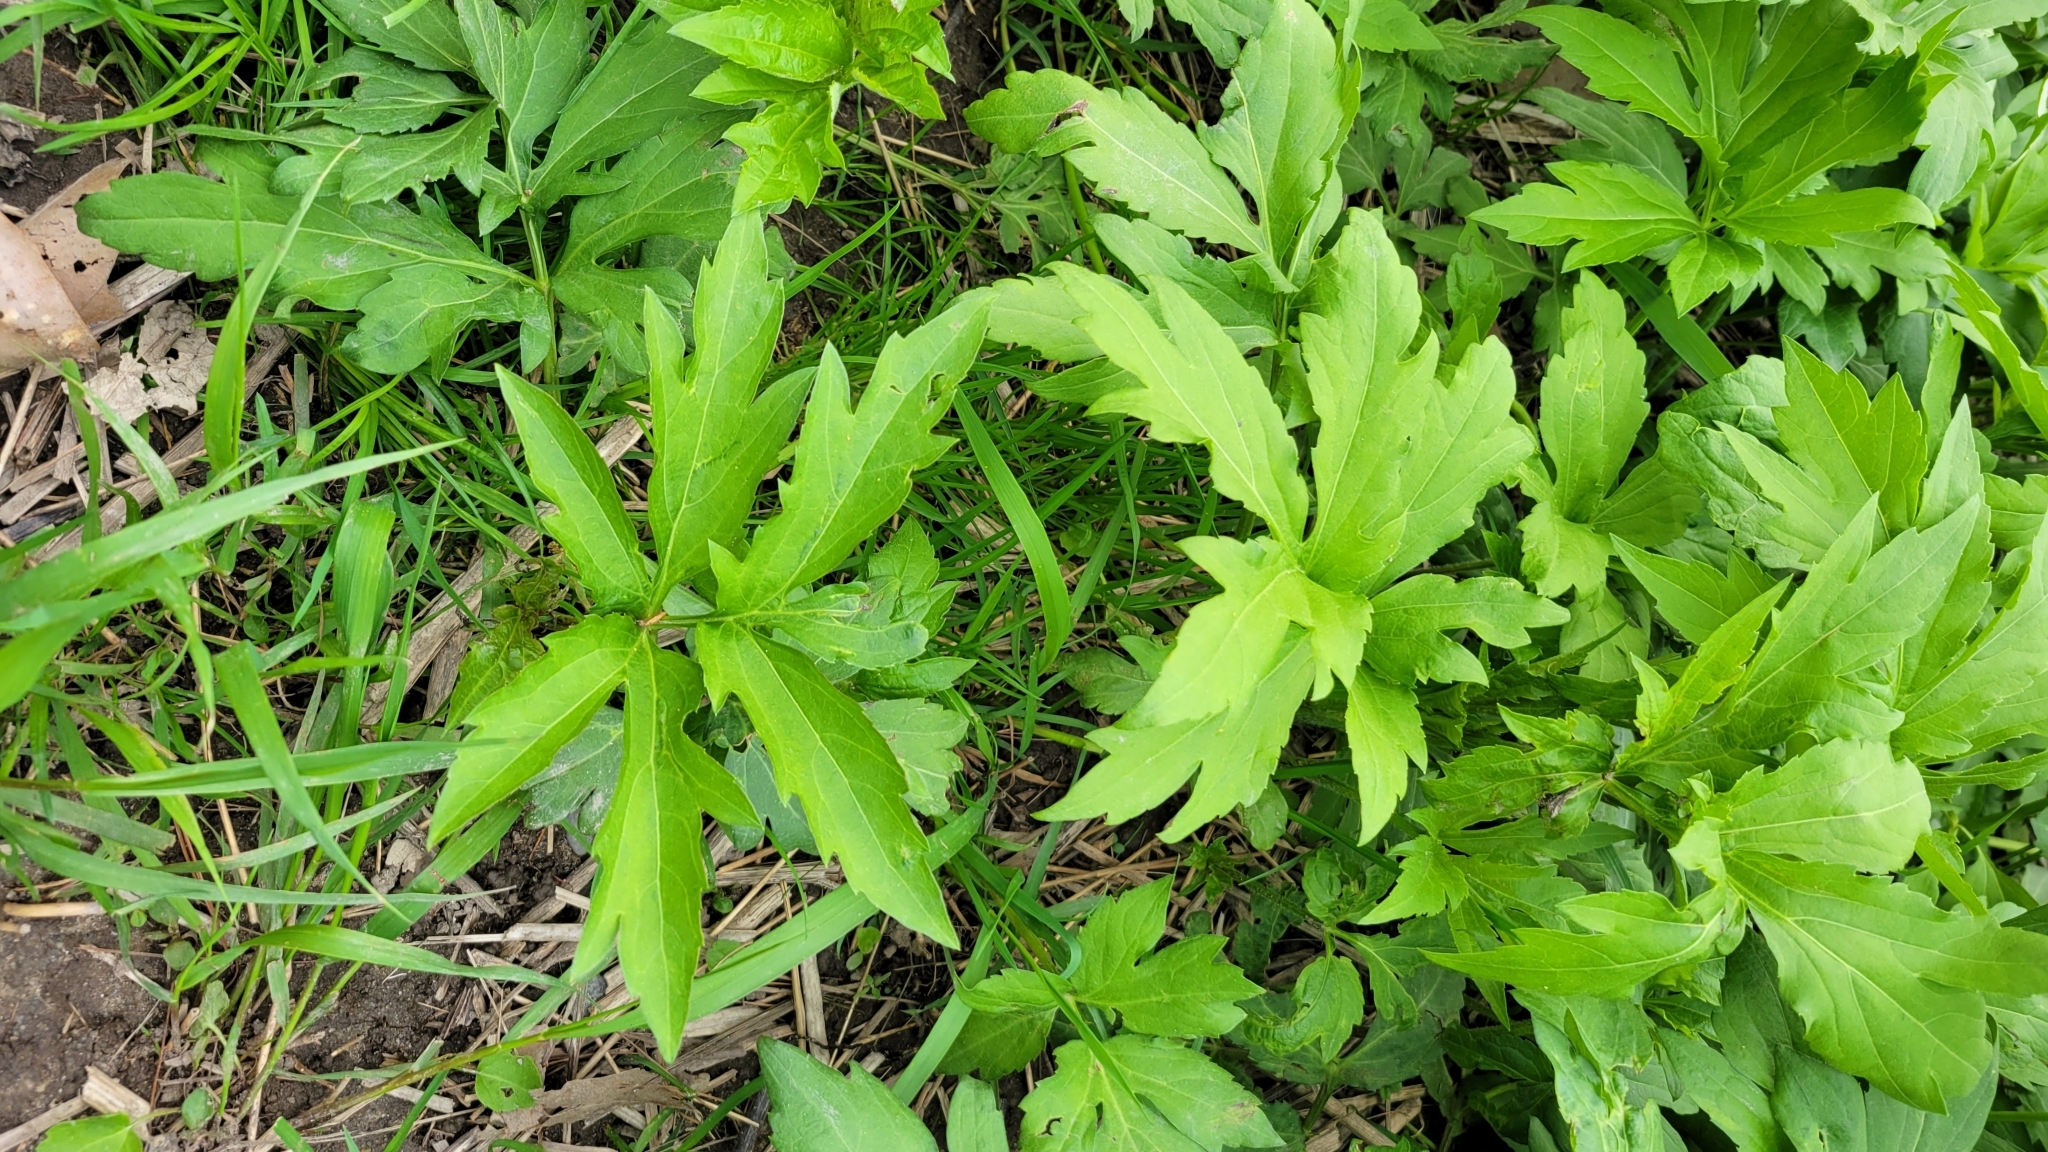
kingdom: Plantae
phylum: Tracheophyta
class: Magnoliopsida
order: Asterales
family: Asteraceae
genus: Rudbeckia
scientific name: Rudbeckia laciniata
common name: Coneflower
